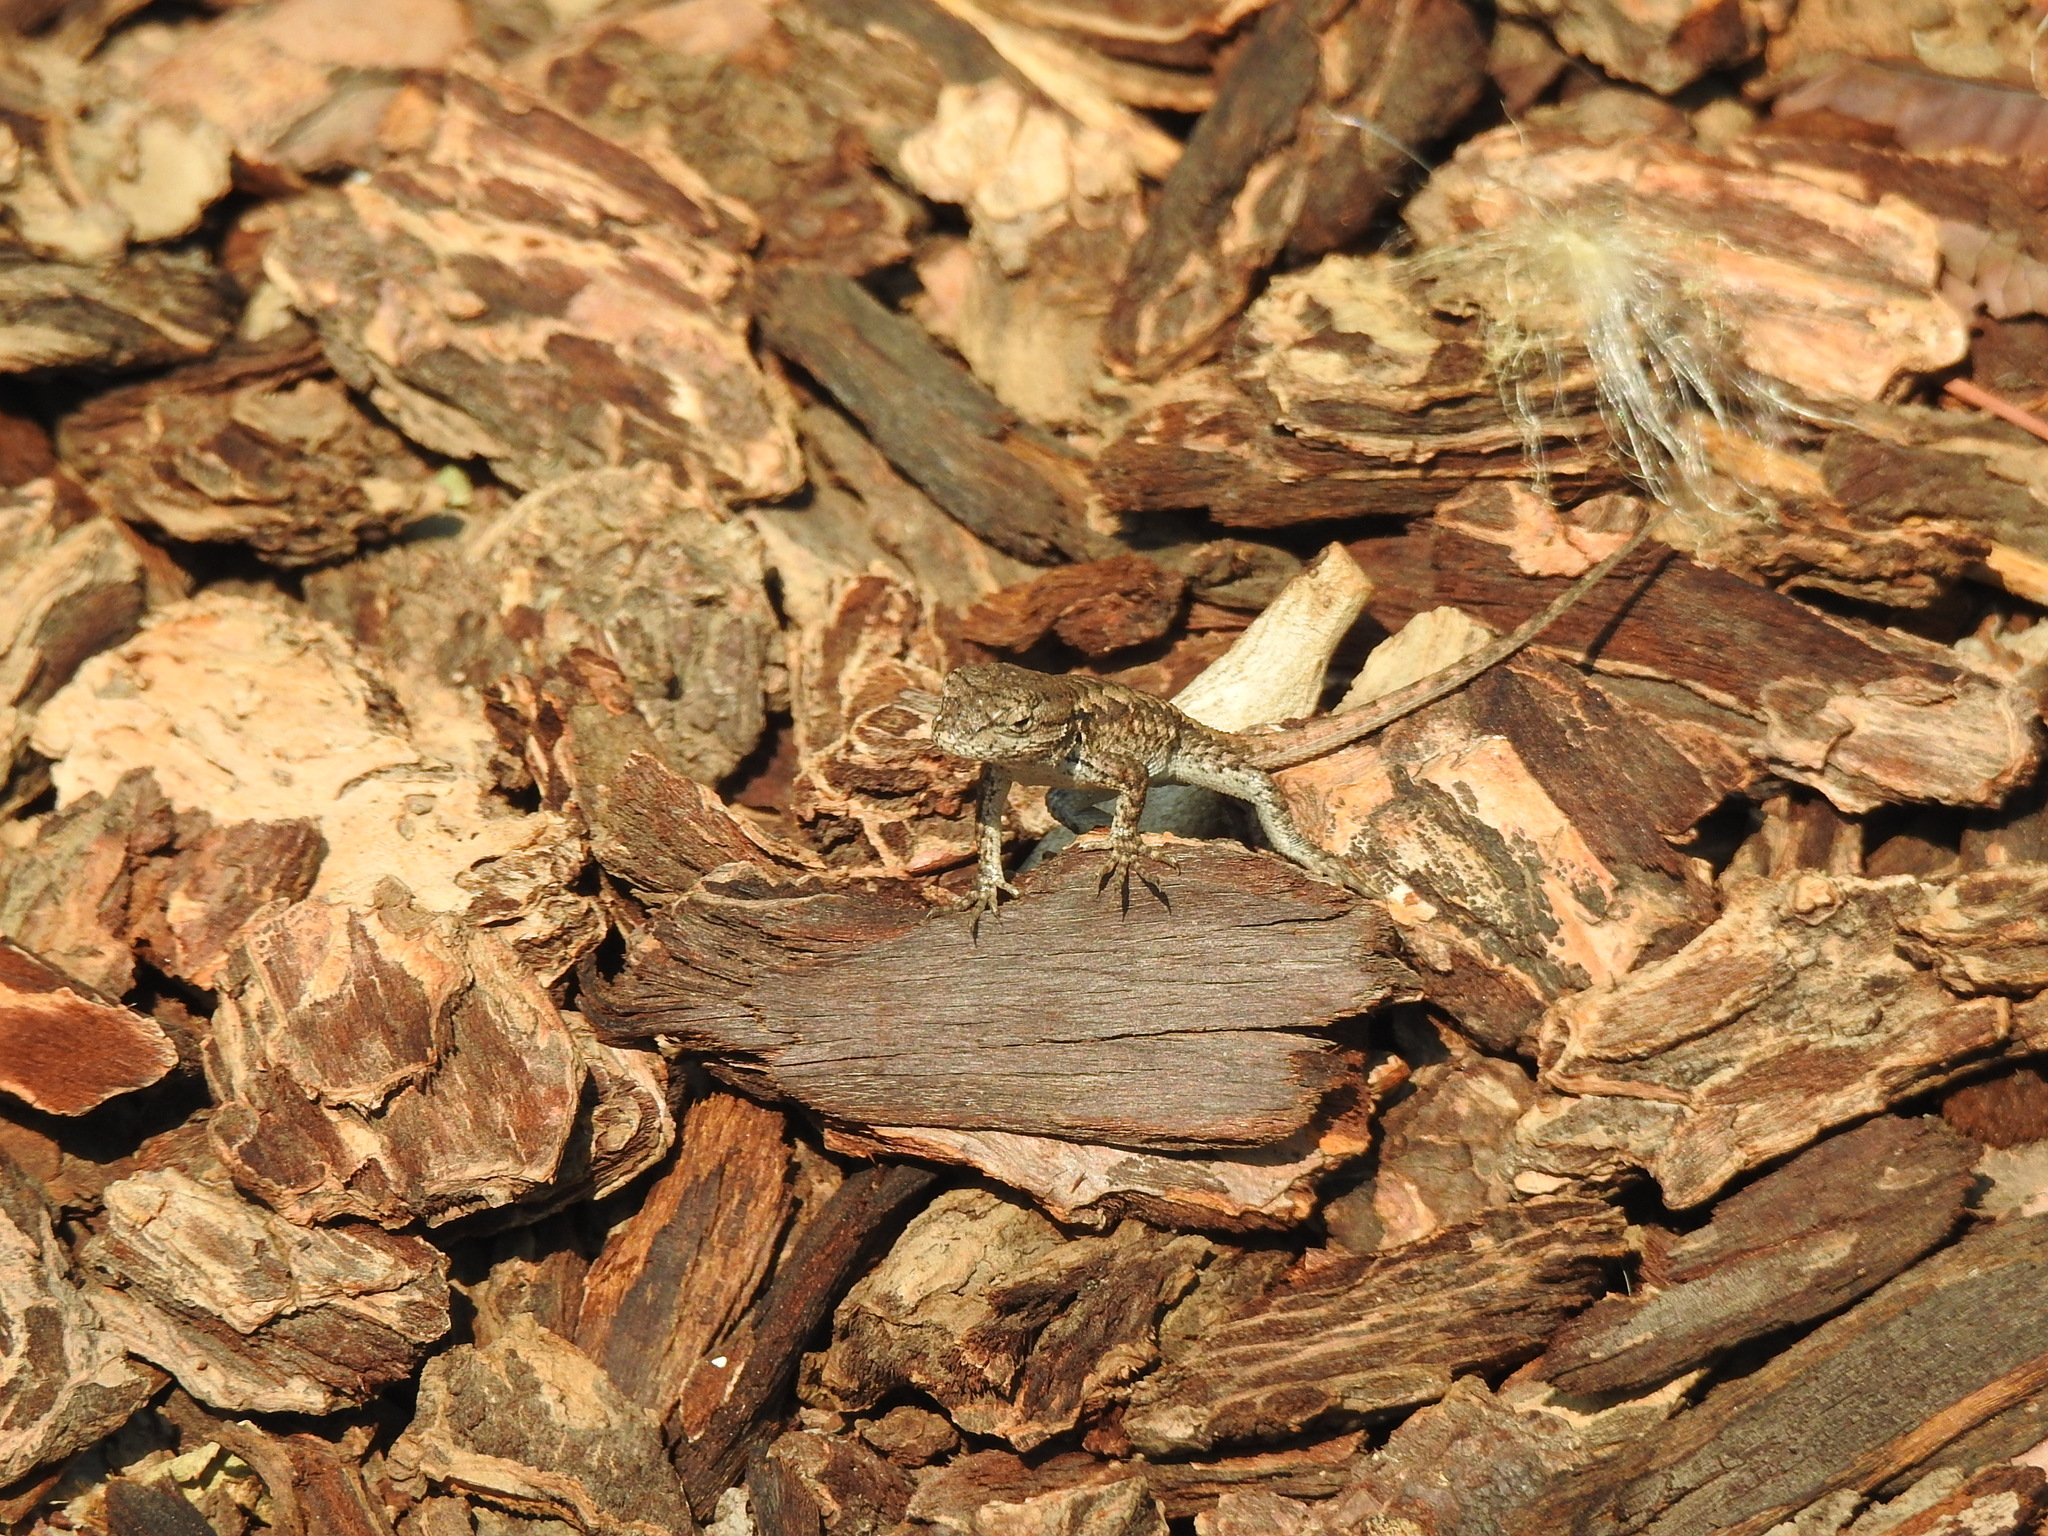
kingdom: Animalia
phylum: Chordata
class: Squamata
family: Phrynosomatidae
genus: Sceloporus
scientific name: Sceloporus occidentalis
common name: Western fence lizard
